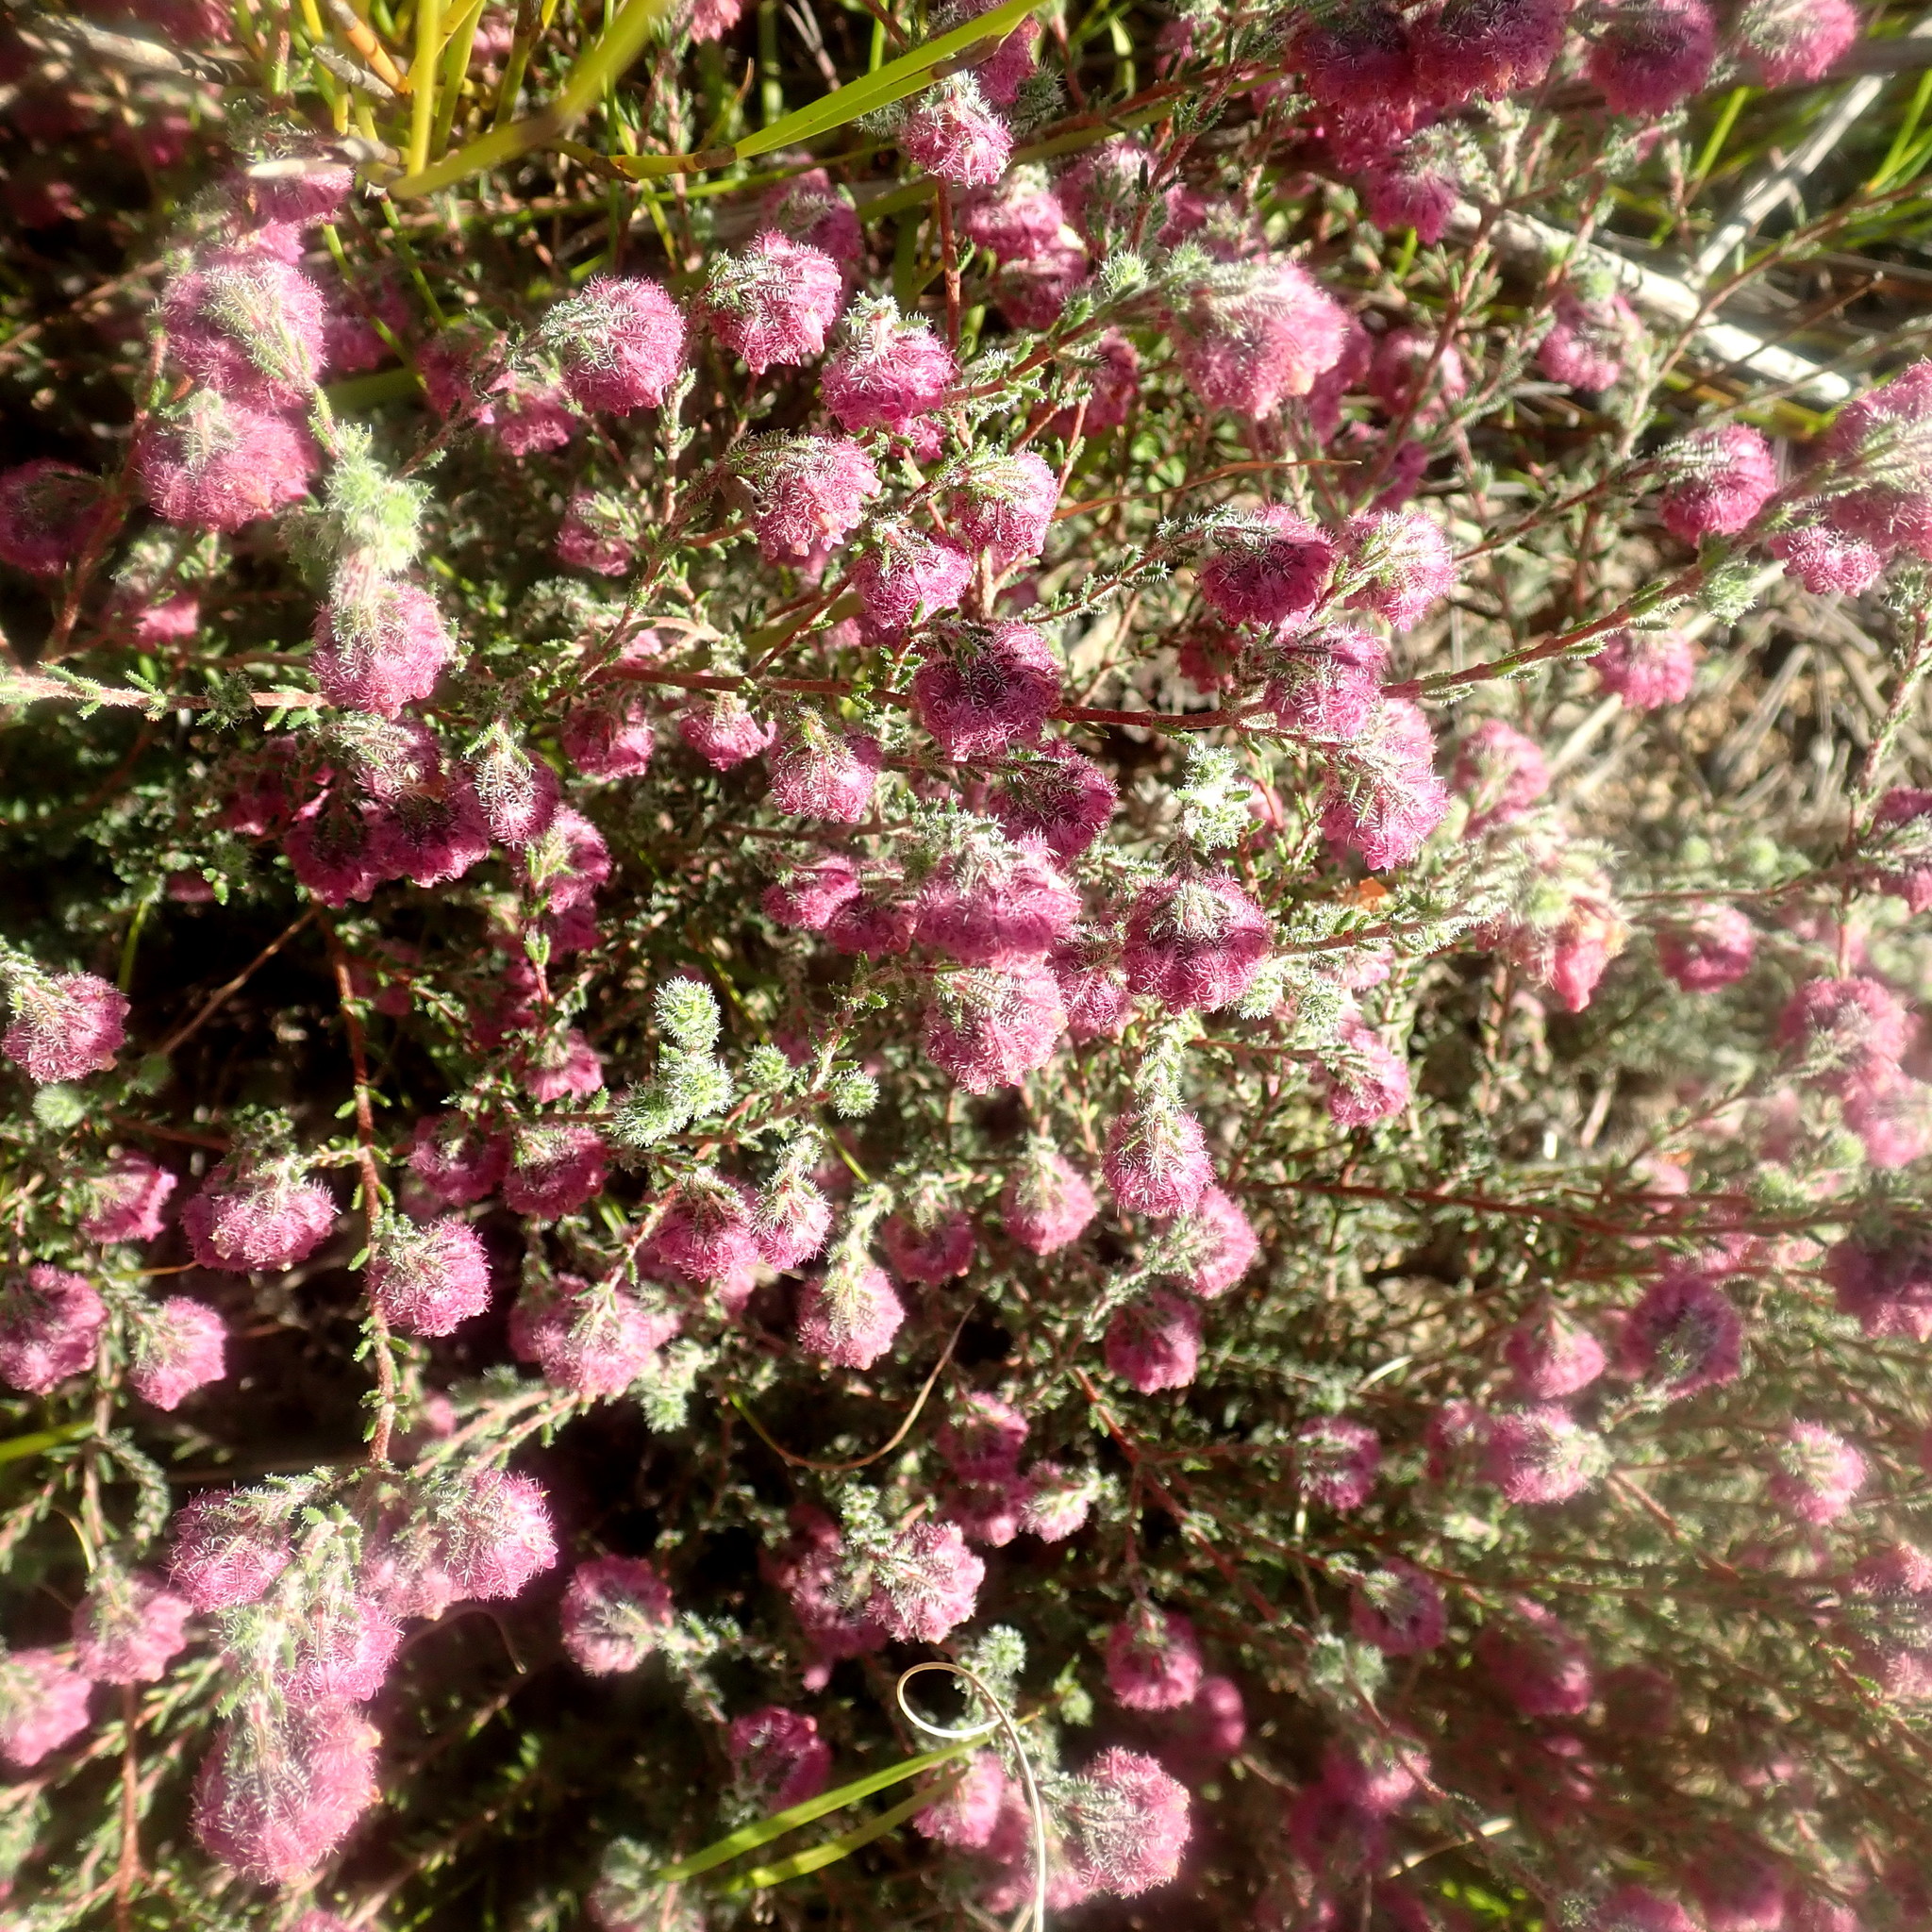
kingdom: Plantae
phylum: Tracheophyta
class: Magnoliopsida
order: Ericales
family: Ericaceae
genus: Erica
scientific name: Erica solandra
